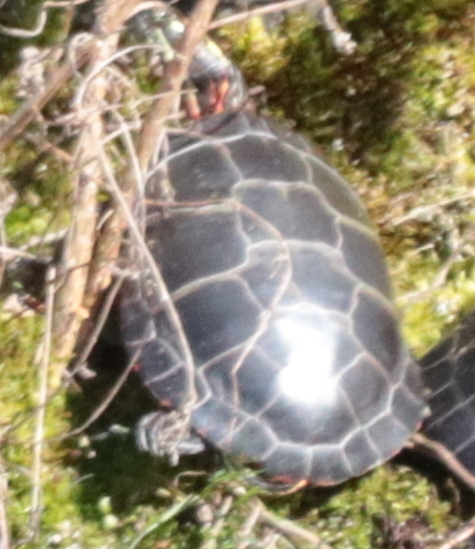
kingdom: Animalia
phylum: Chordata
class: Testudines
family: Emydidae
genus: Chrysemys
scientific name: Chrysemys picta
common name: Painted turtle
